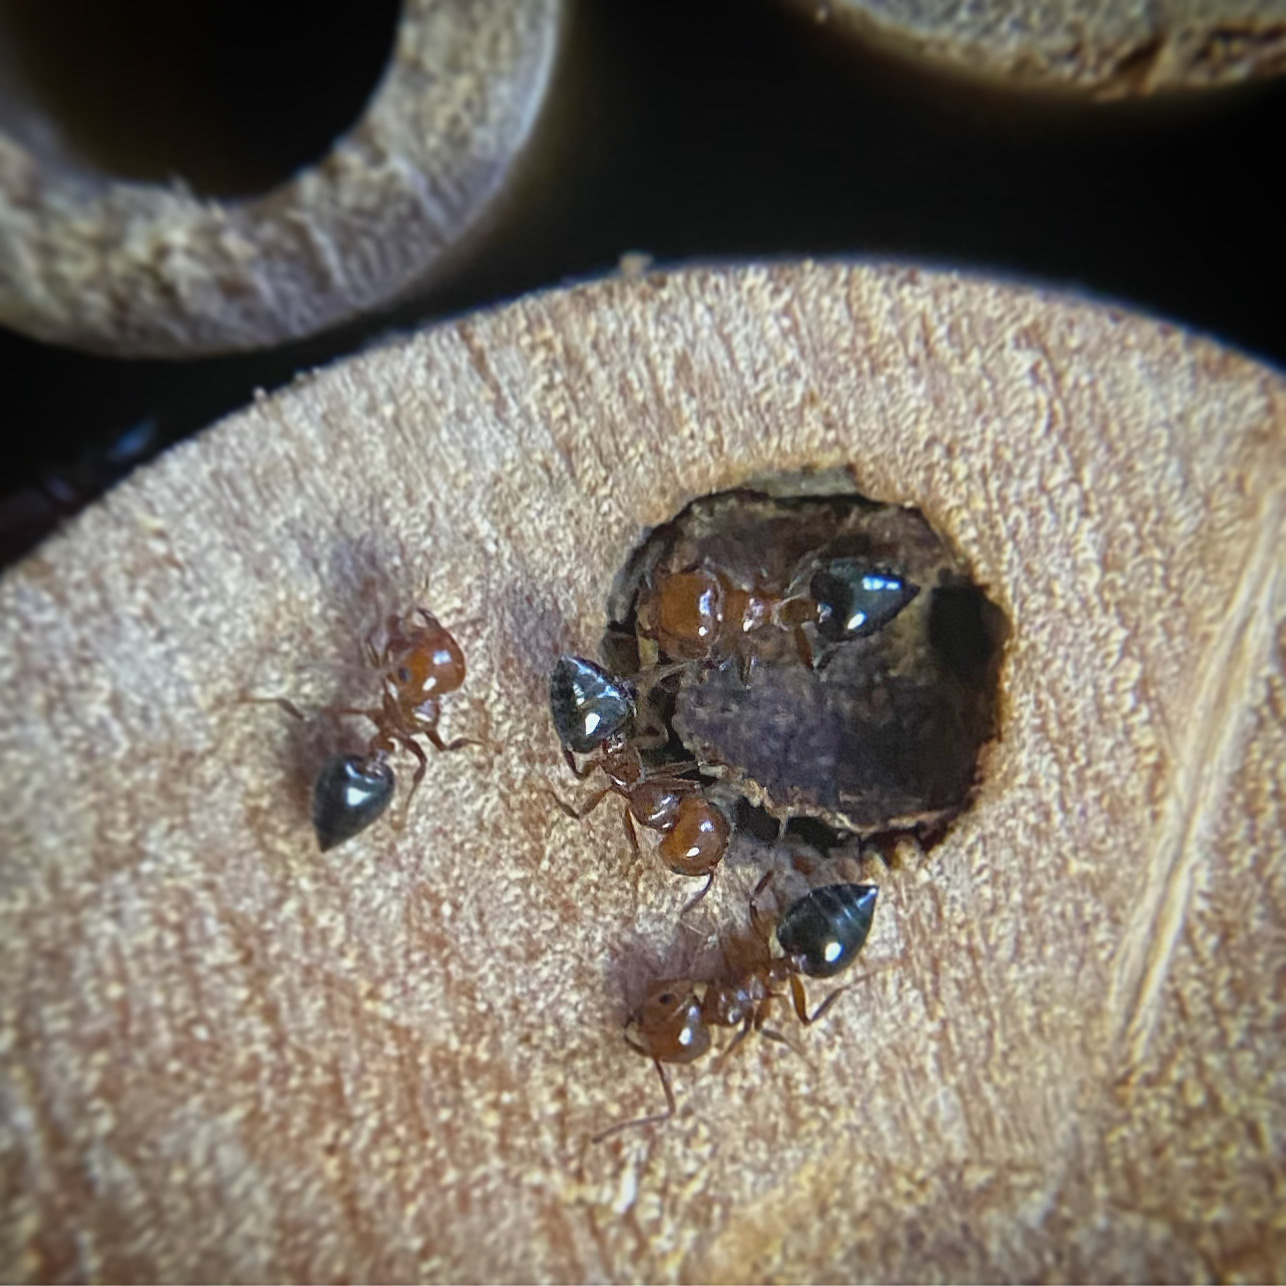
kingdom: Animalia
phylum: Arthropoda
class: Insecta
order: Hymenoptera
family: Formicidae
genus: Crematogaster
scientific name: Crematogaster laeviuscula
